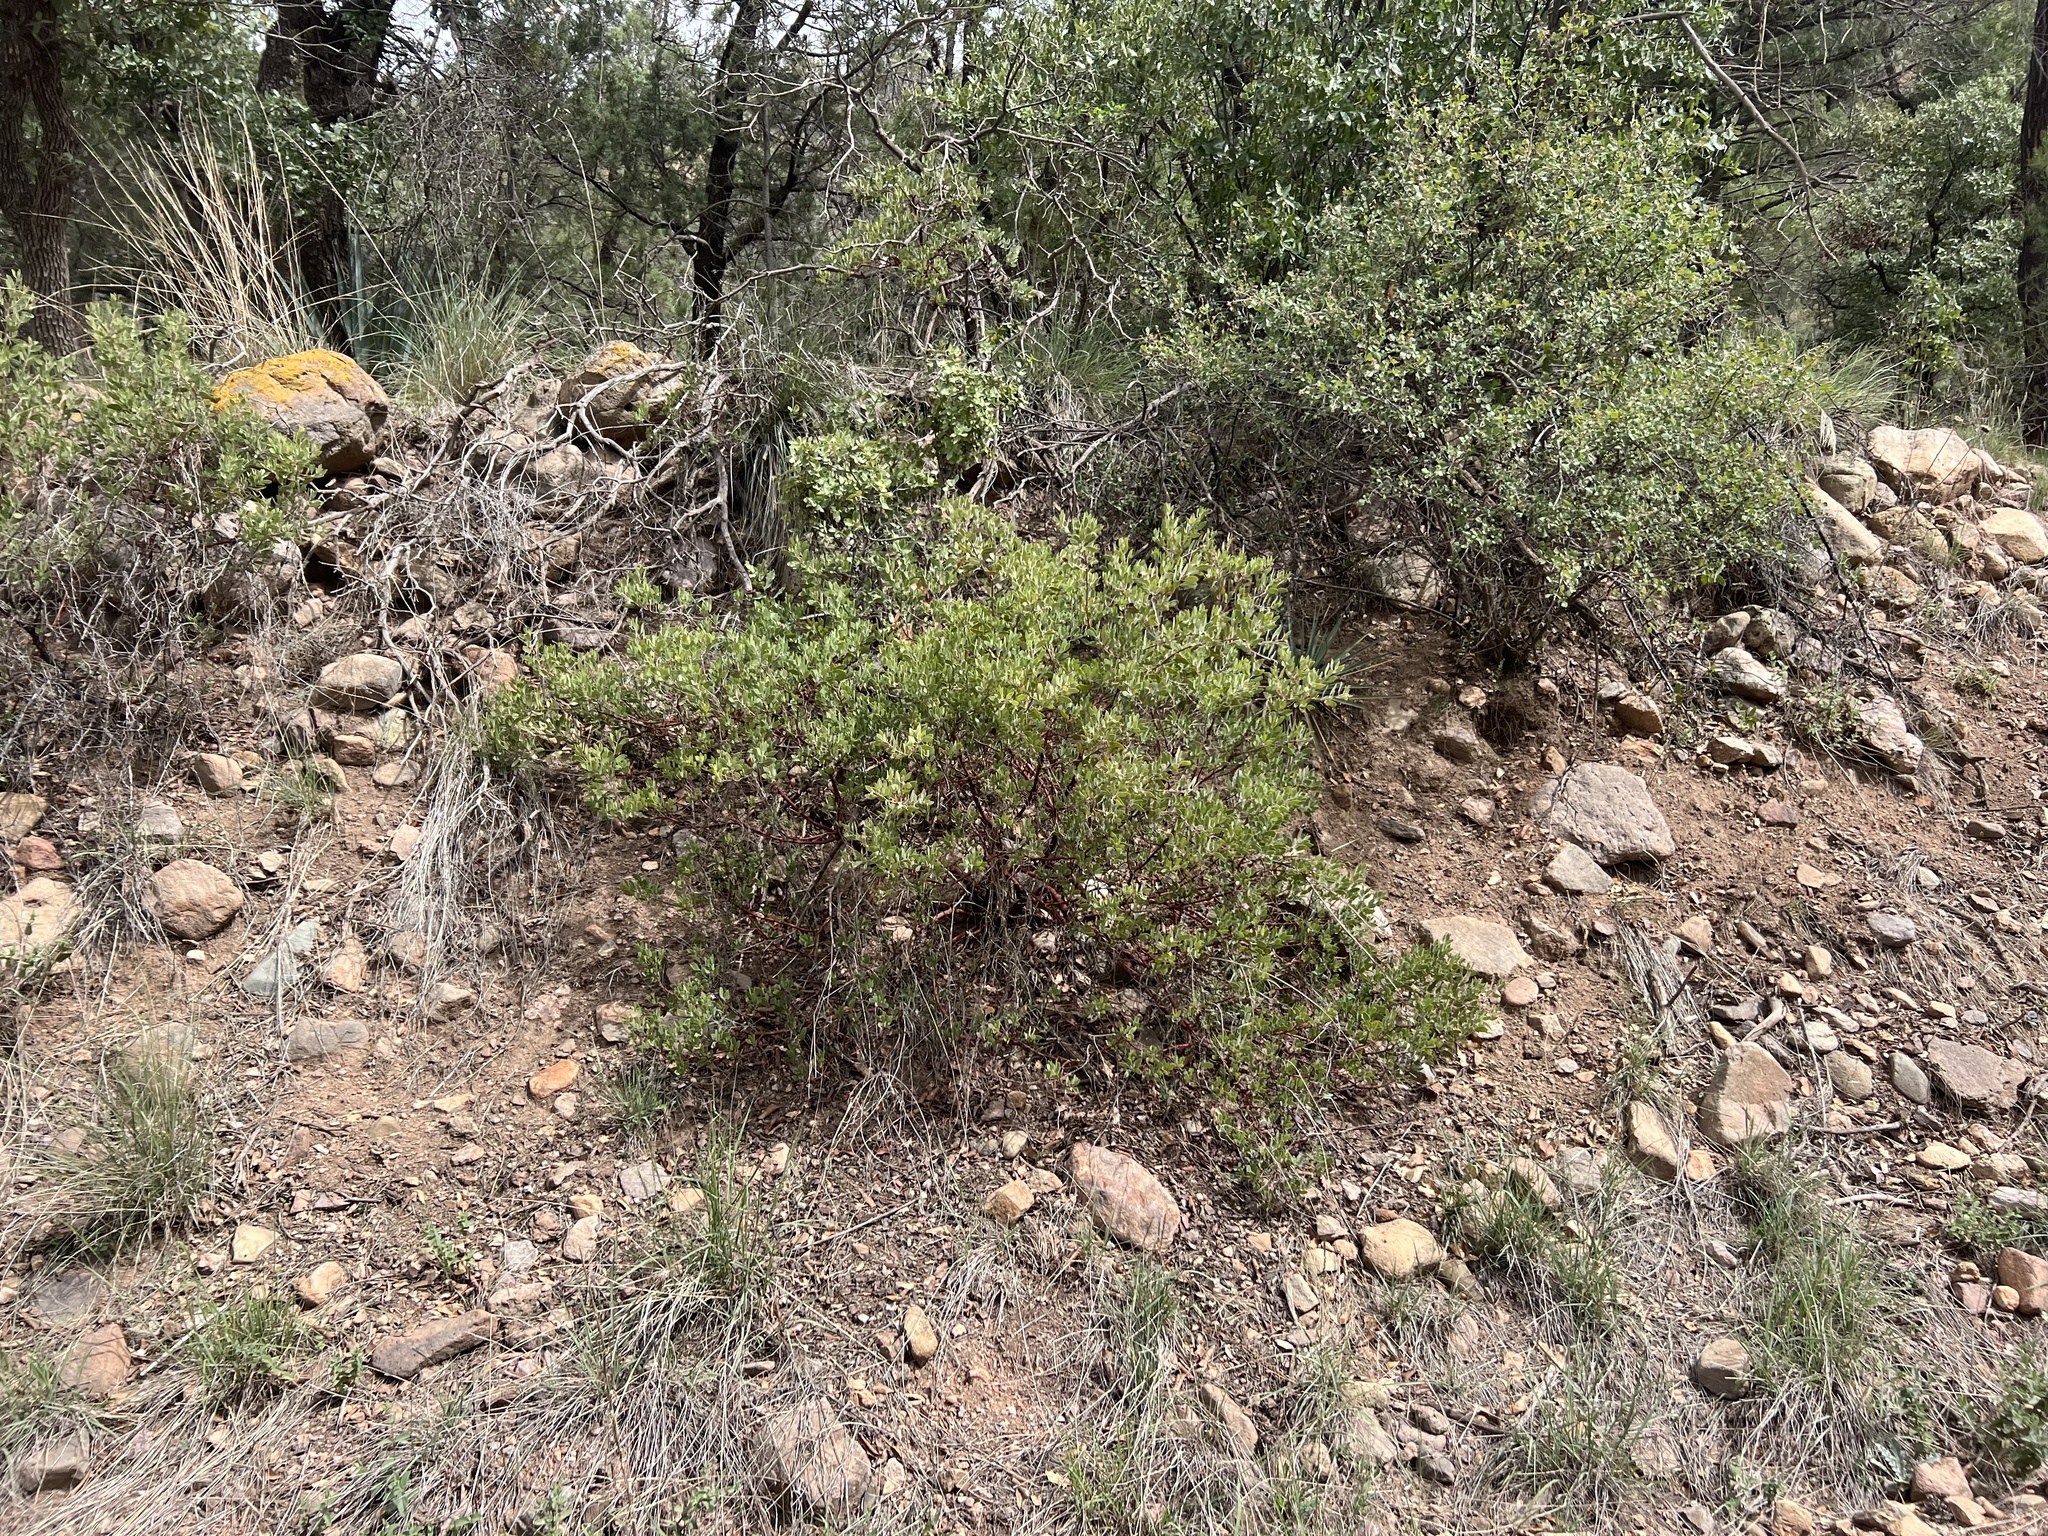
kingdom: Plantae
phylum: Tracheophyta
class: Magnoliopsida
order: Ericales
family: Ericaceae
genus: Arctostaphylos
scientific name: Arctostaphylos pungens
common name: Mexican manzanita
